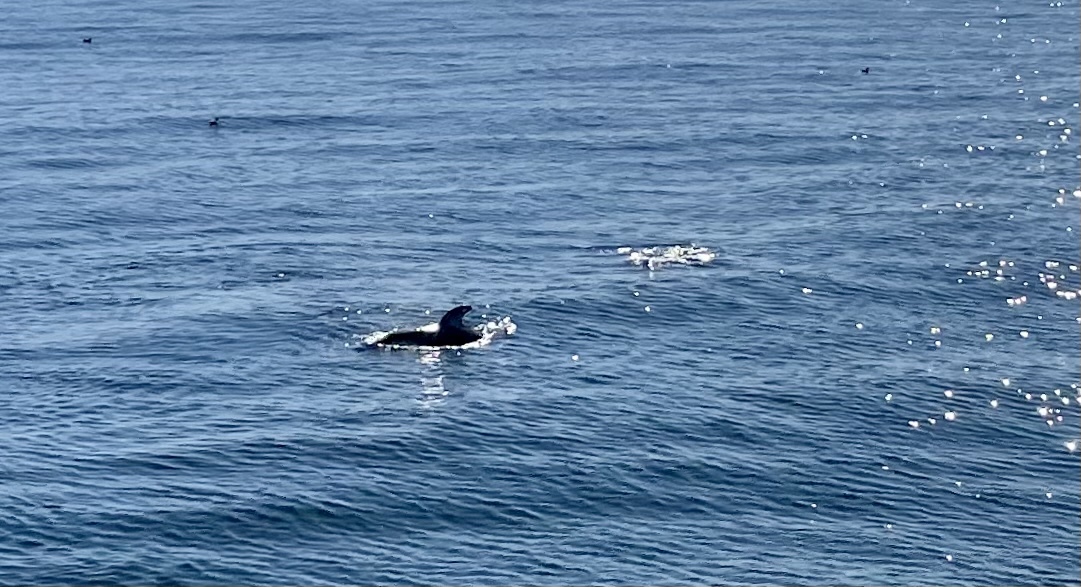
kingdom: Animalia
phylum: Chordata
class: Mammalia
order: Cetacea
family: Delphinidae
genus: Lagenorhynchus
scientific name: Lagenorhynchus obliquidens
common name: Pacific white-sided dolphin
